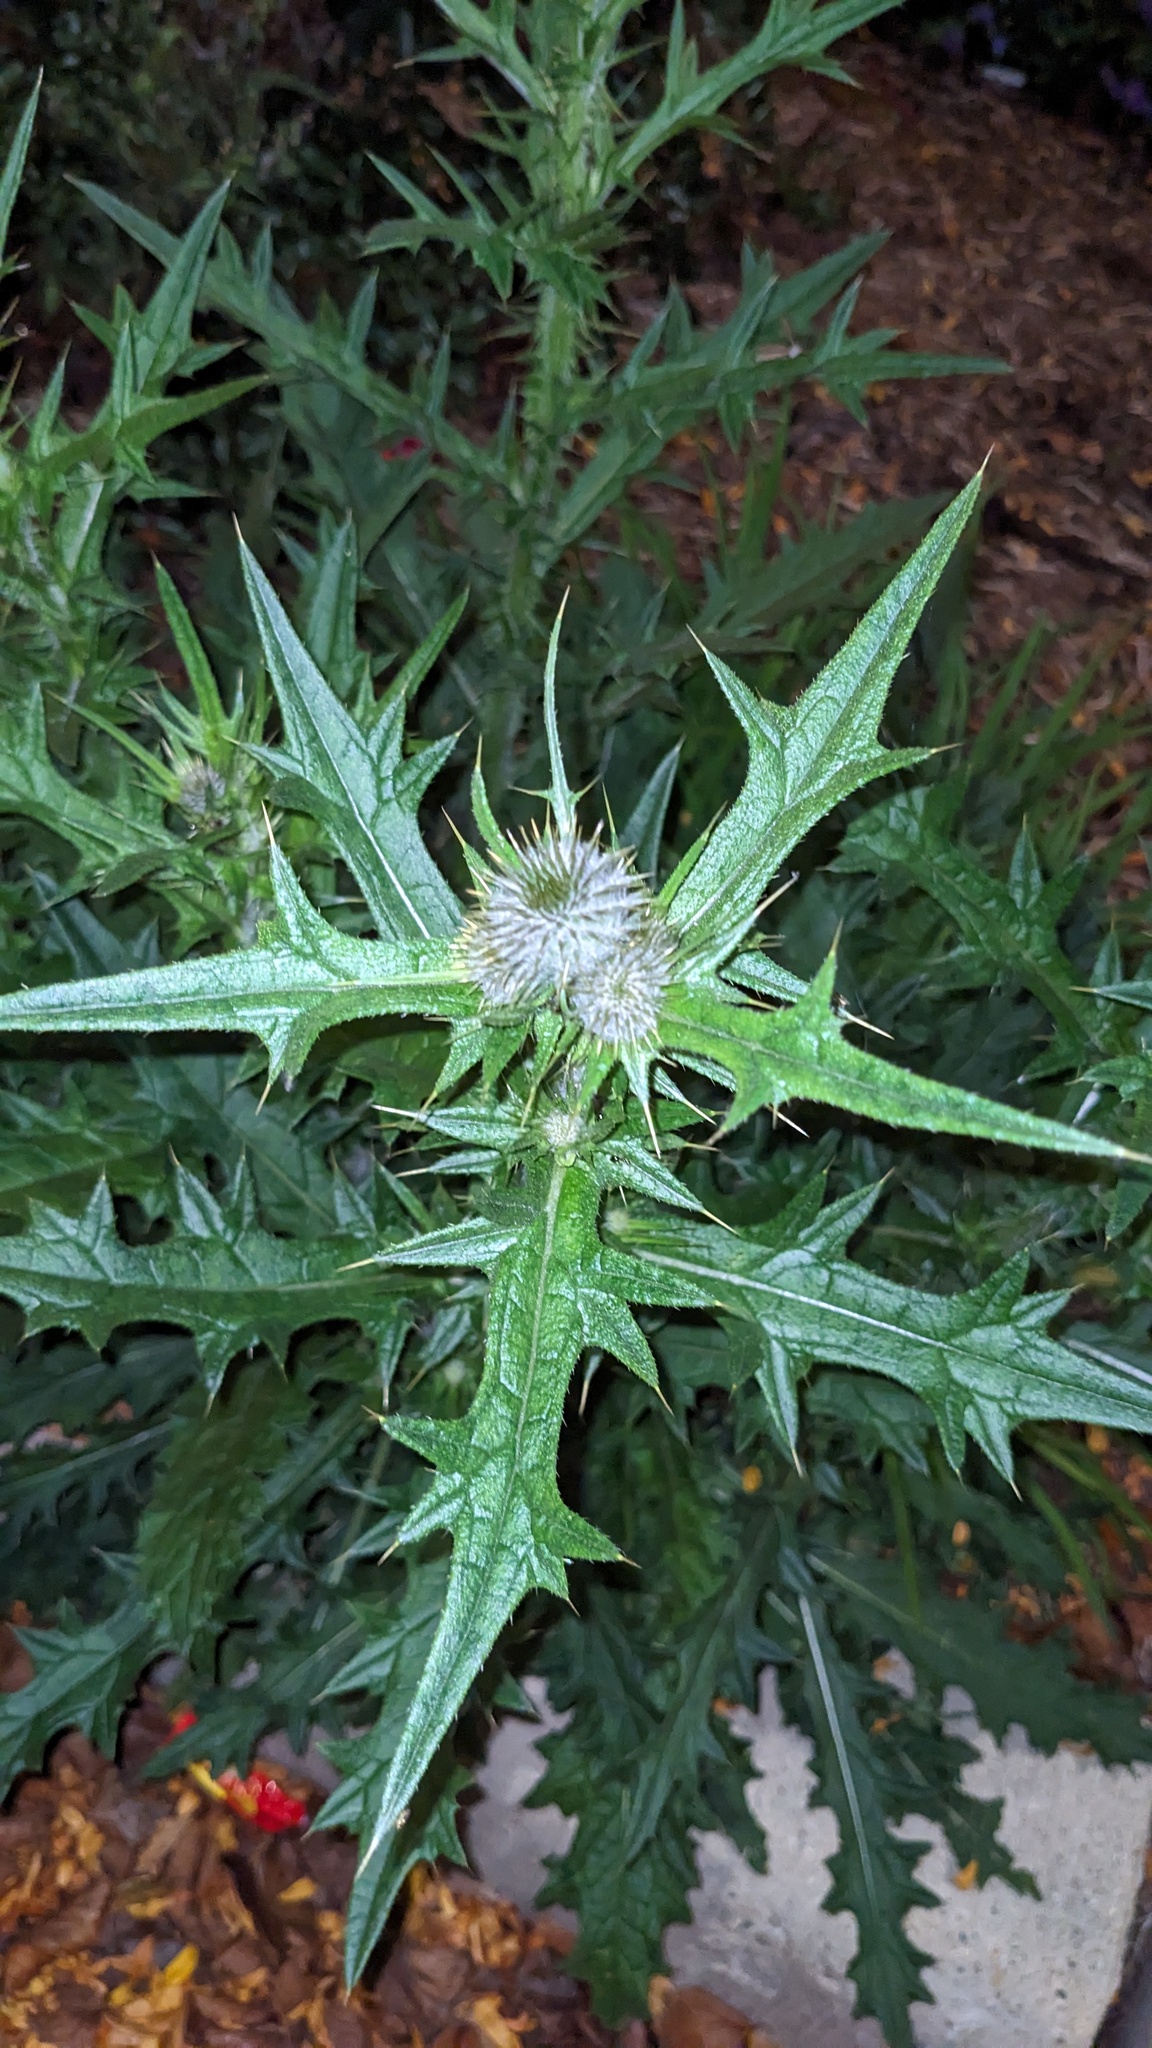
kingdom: Plantae
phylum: Tracheophyta
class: Magnoliopsida
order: Asterales
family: Asteraceae
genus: Cirsium
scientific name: Cirsium vulgare
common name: Bull thistle
